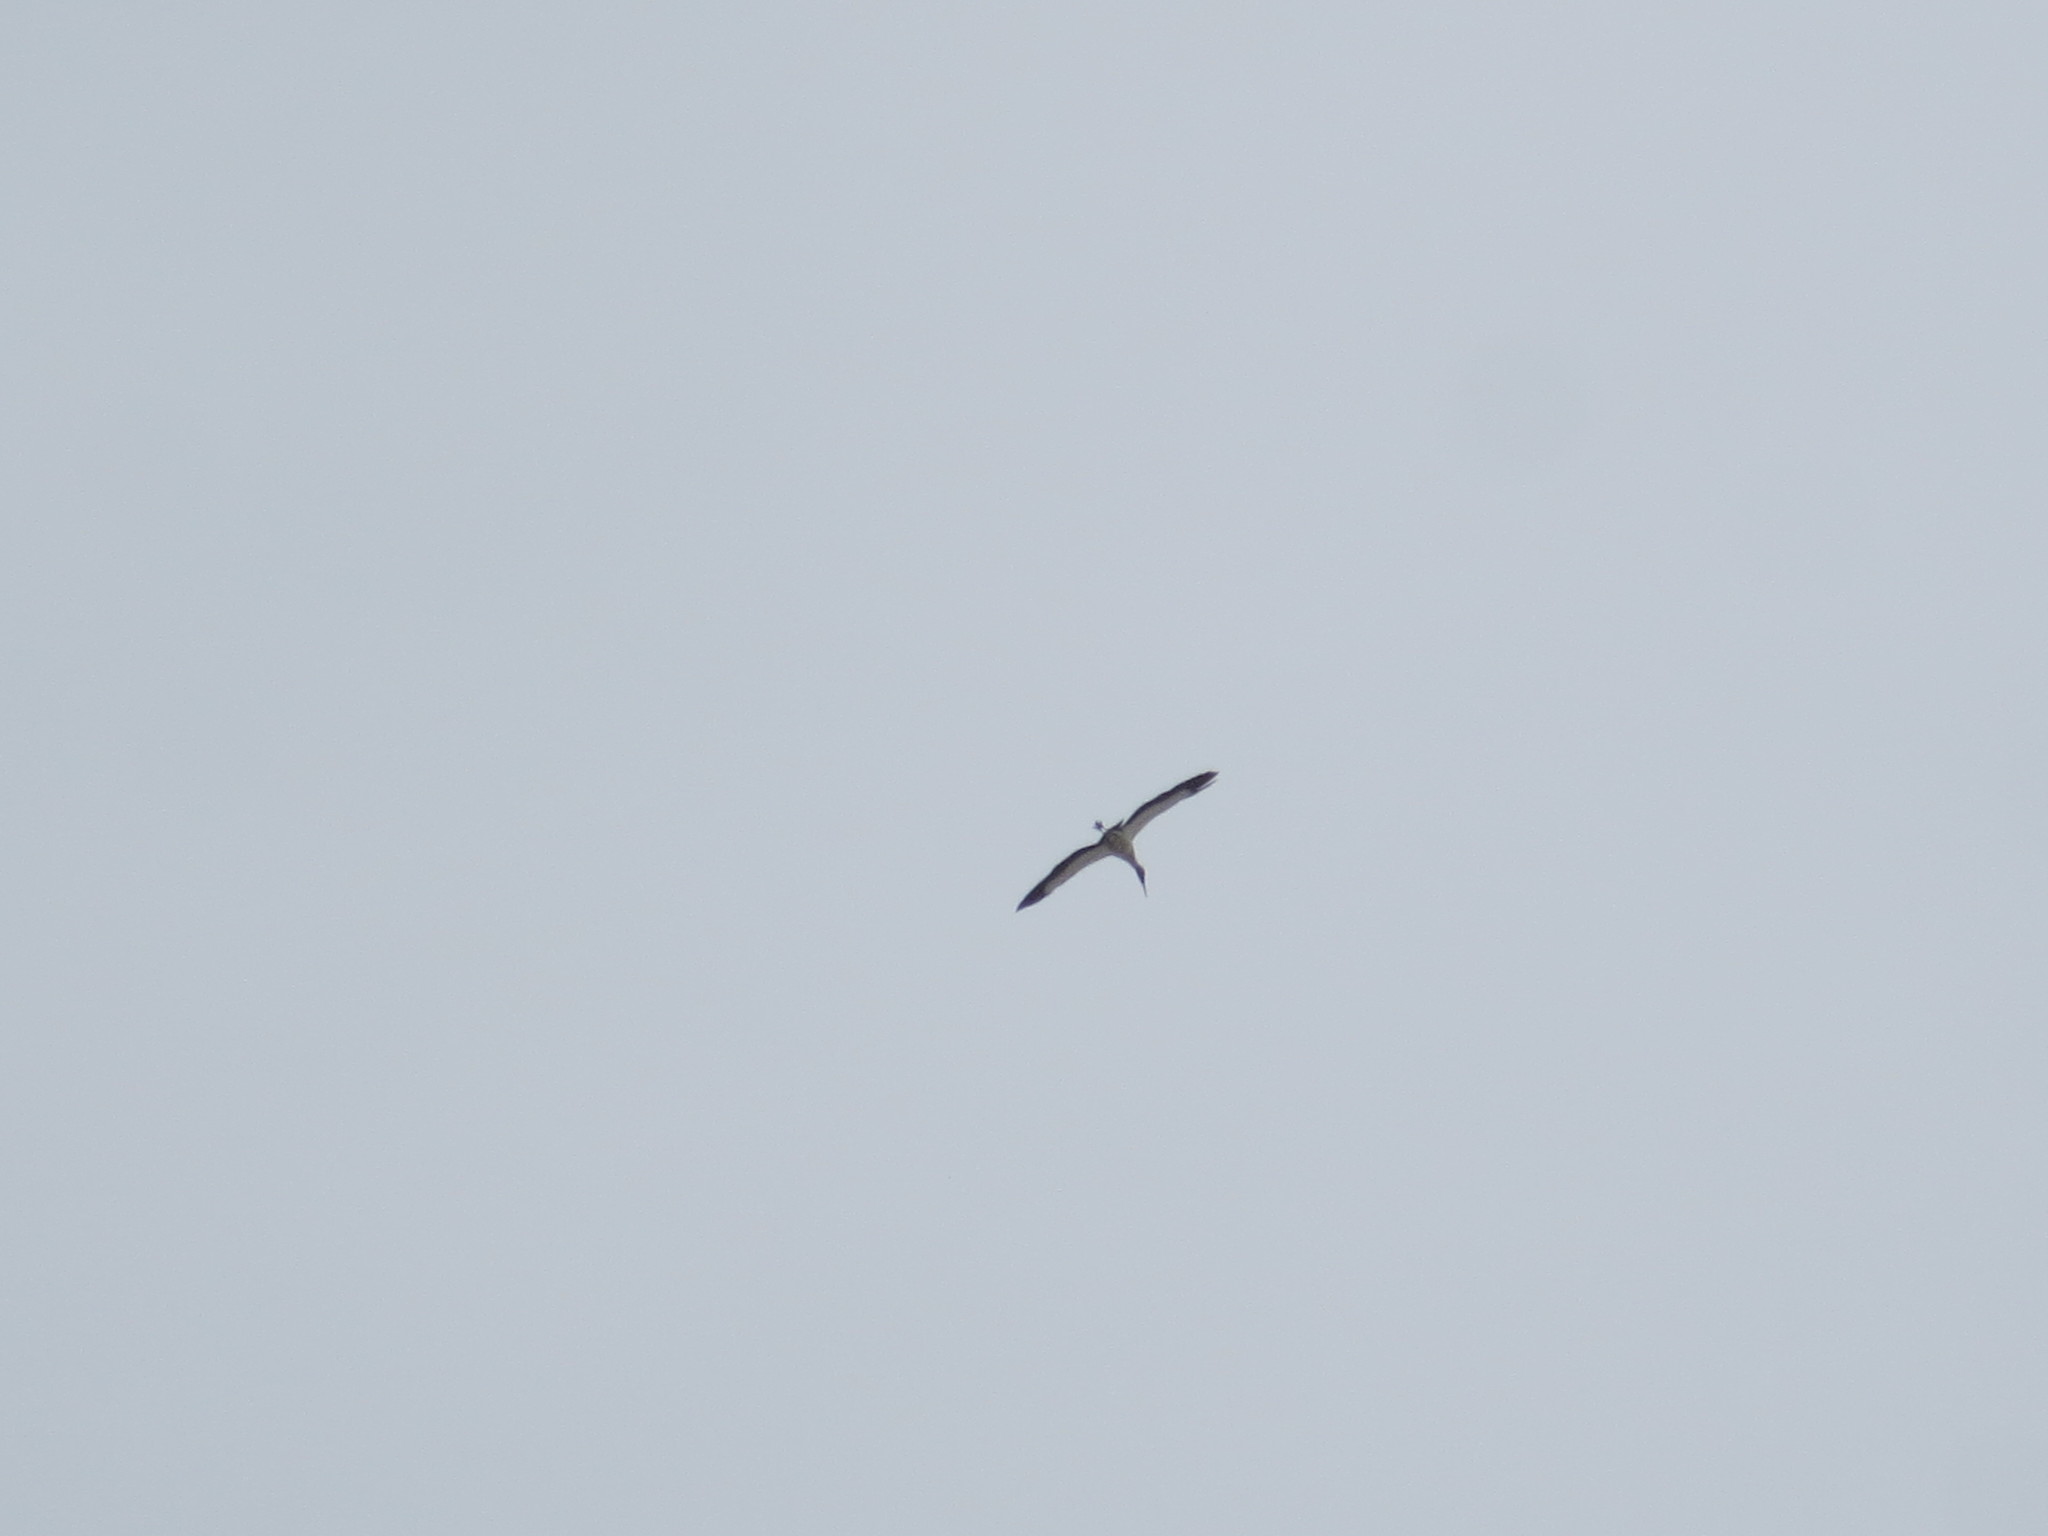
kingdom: Animalia
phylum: Chordata
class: Aves
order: Ciconiiformes
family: Ciconiidae
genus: Mycteria
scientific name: Mycteria americana
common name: Wood stork
